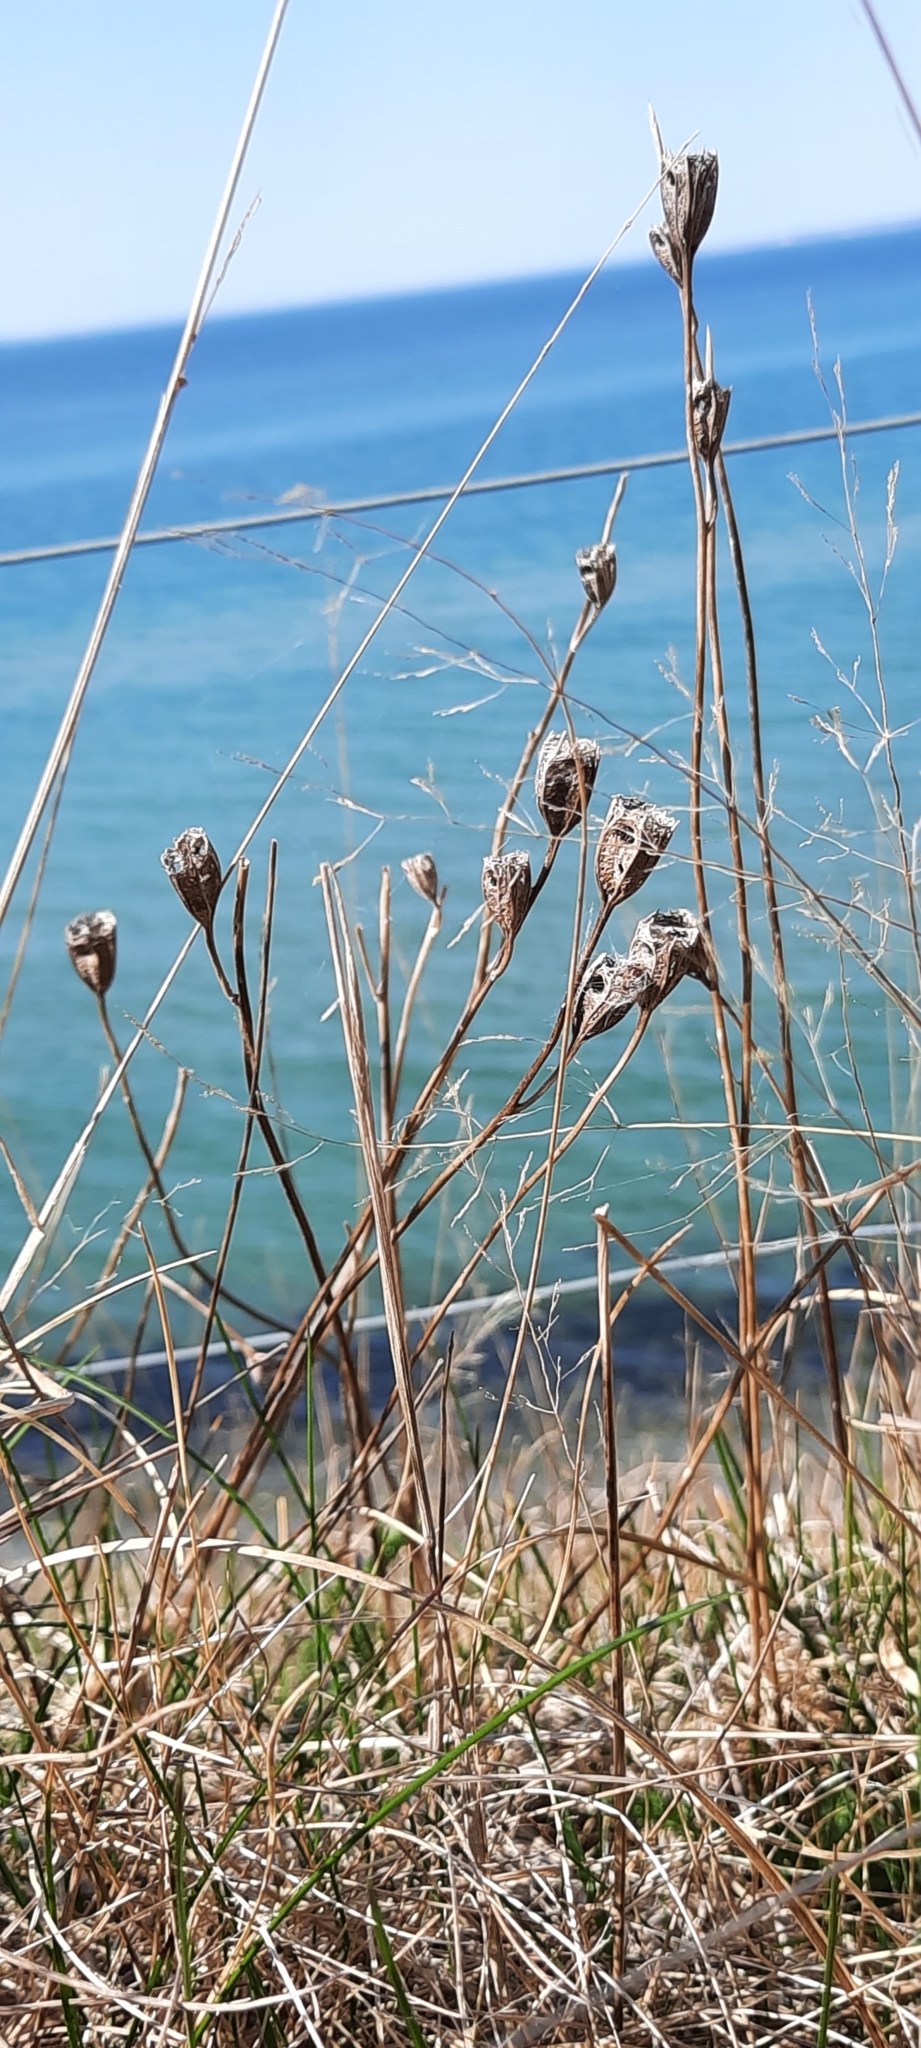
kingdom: Plantae
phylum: Tracheophyta
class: Magnoliopsida
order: Asterales
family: Campanulaceae
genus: Campanula
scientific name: Campanula persicifolia
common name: Peach-leaved bellflower
